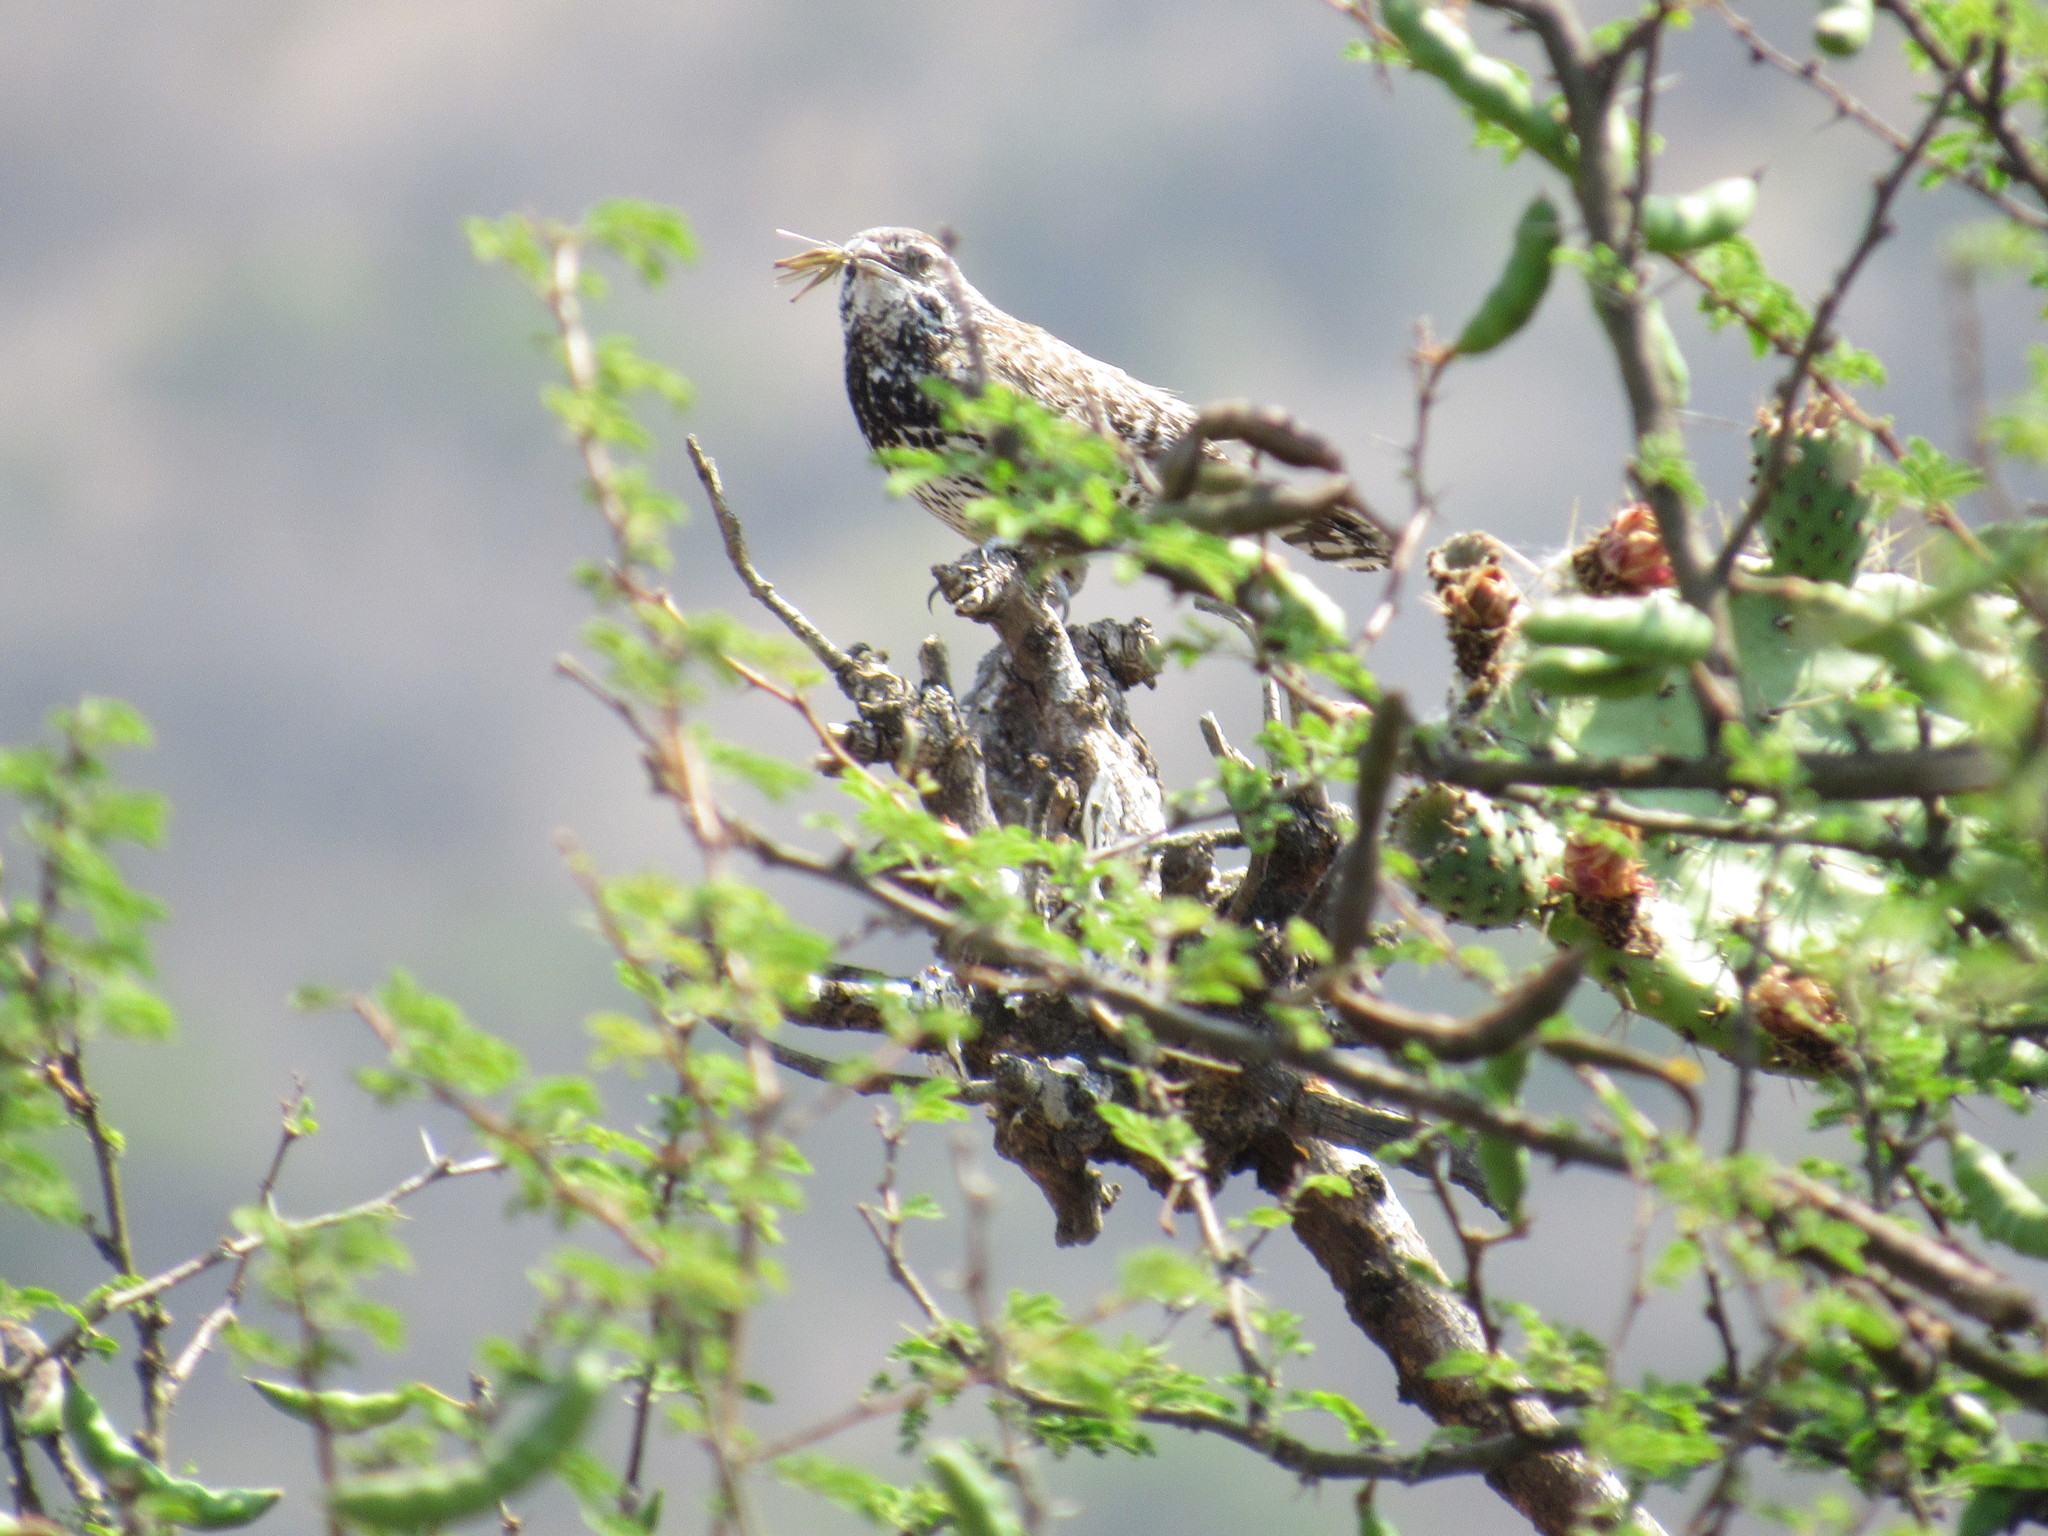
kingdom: Animalia
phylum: Chordata
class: Aves
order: Passeriformes
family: Troglodytidae
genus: Campylorhynchus
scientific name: Campylorhynchus brunneicapillus
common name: Cactus wren
